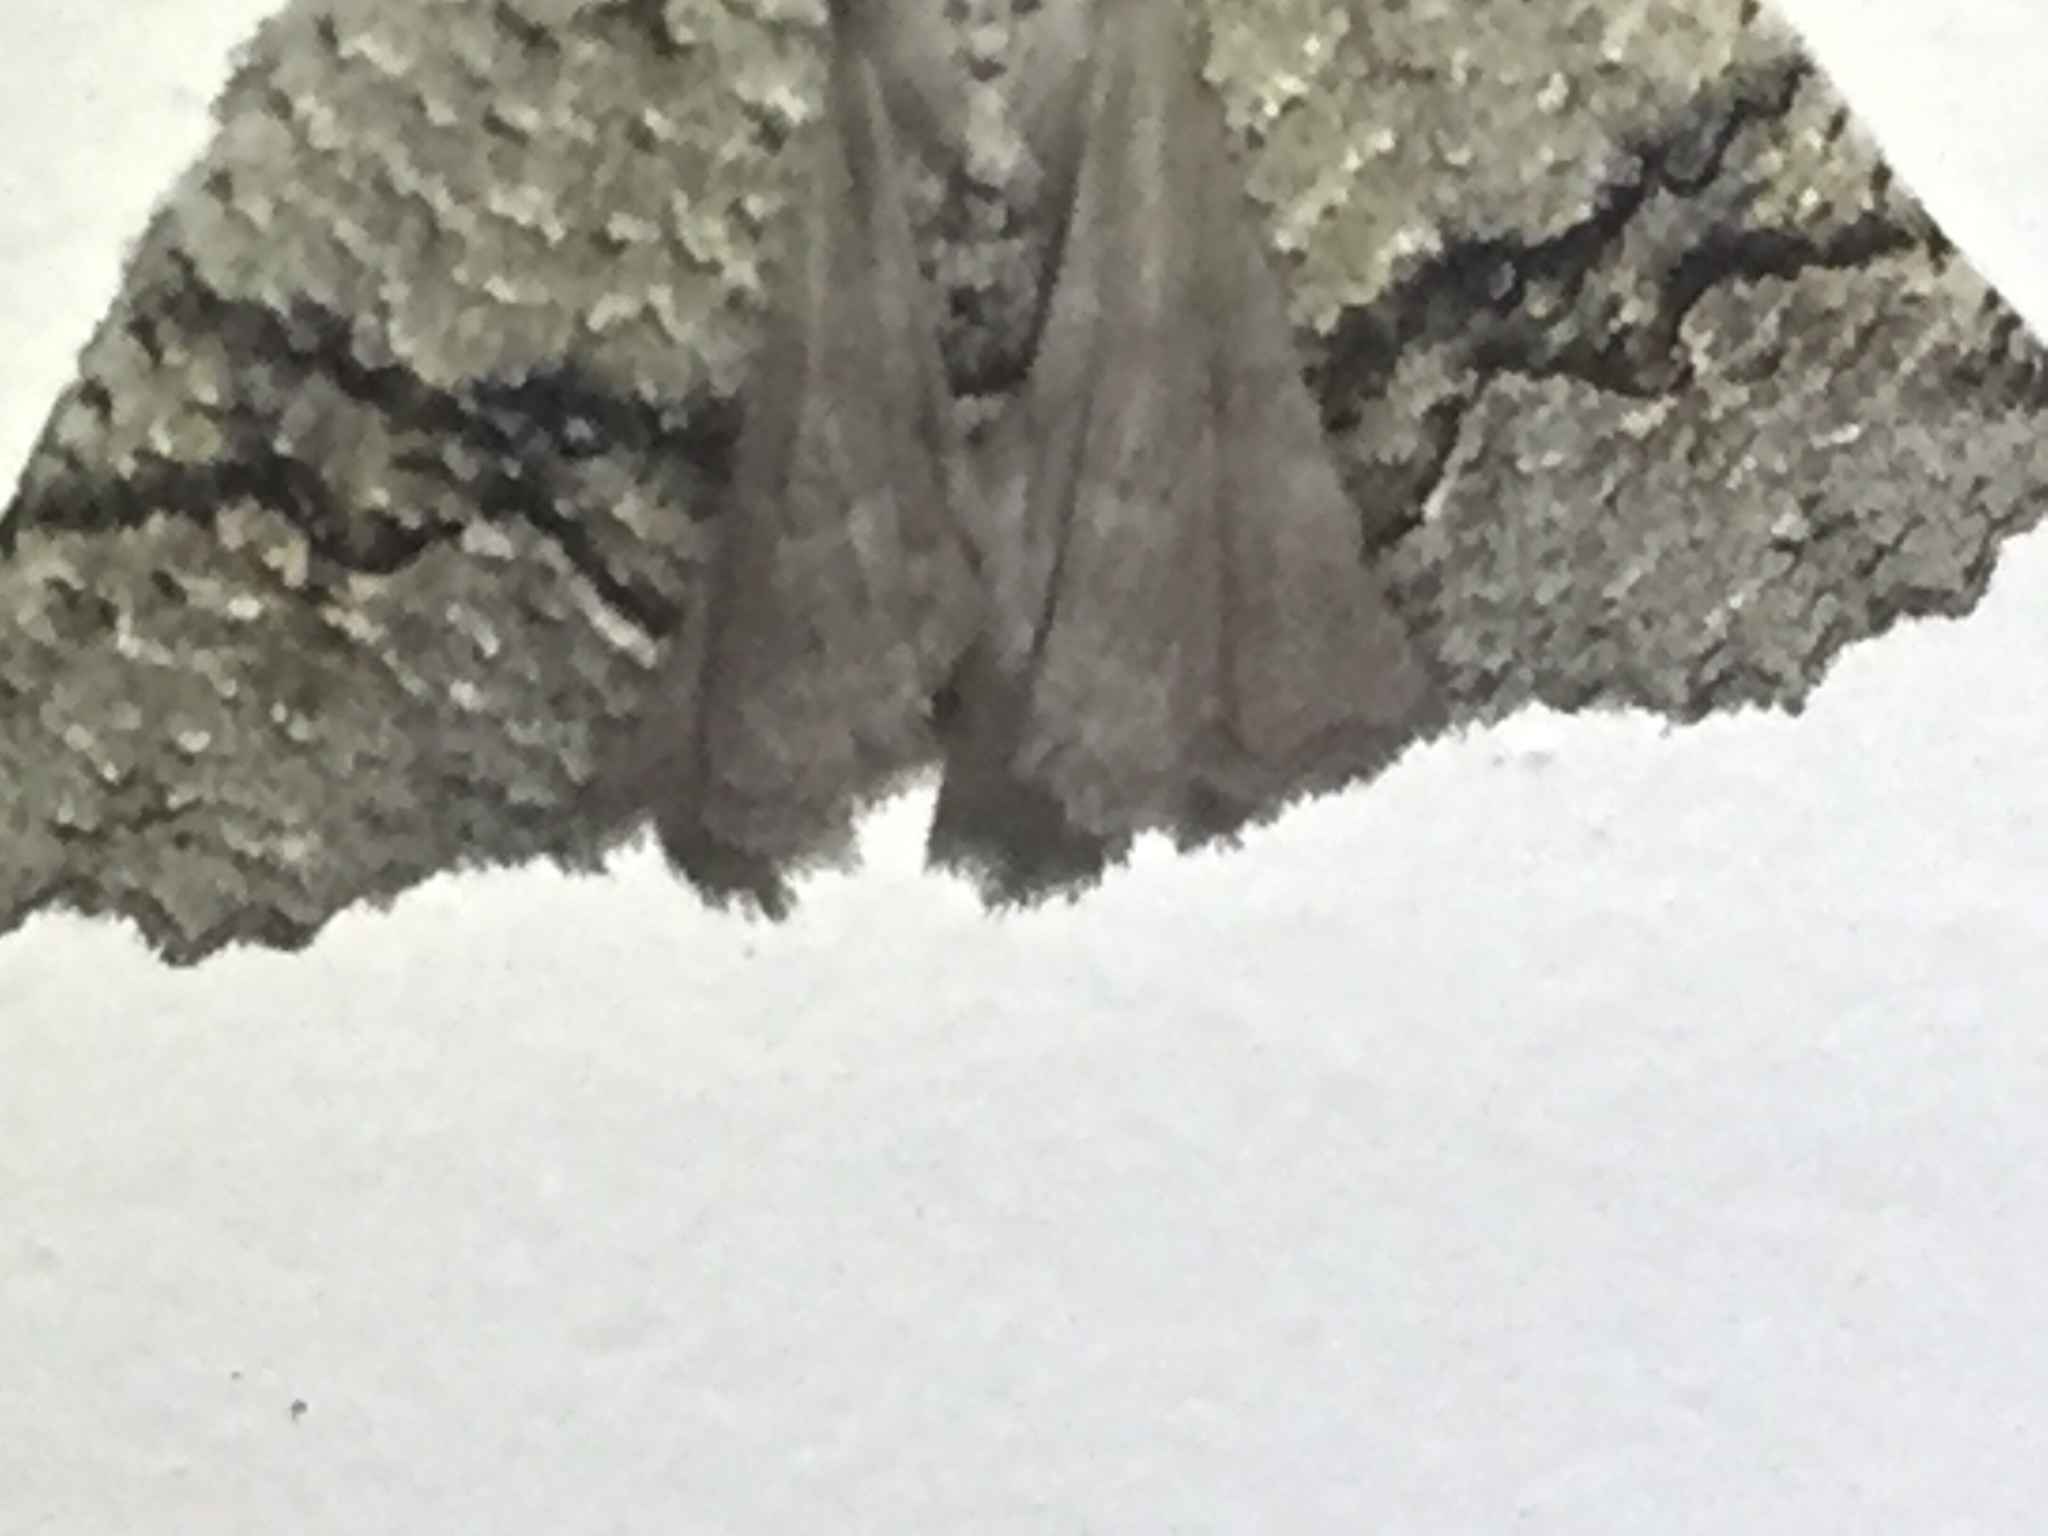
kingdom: Animalia
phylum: Arthropoda
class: Insecta
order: Lepidoptera
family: Geometridae
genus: Declana
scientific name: Declana floccosa
